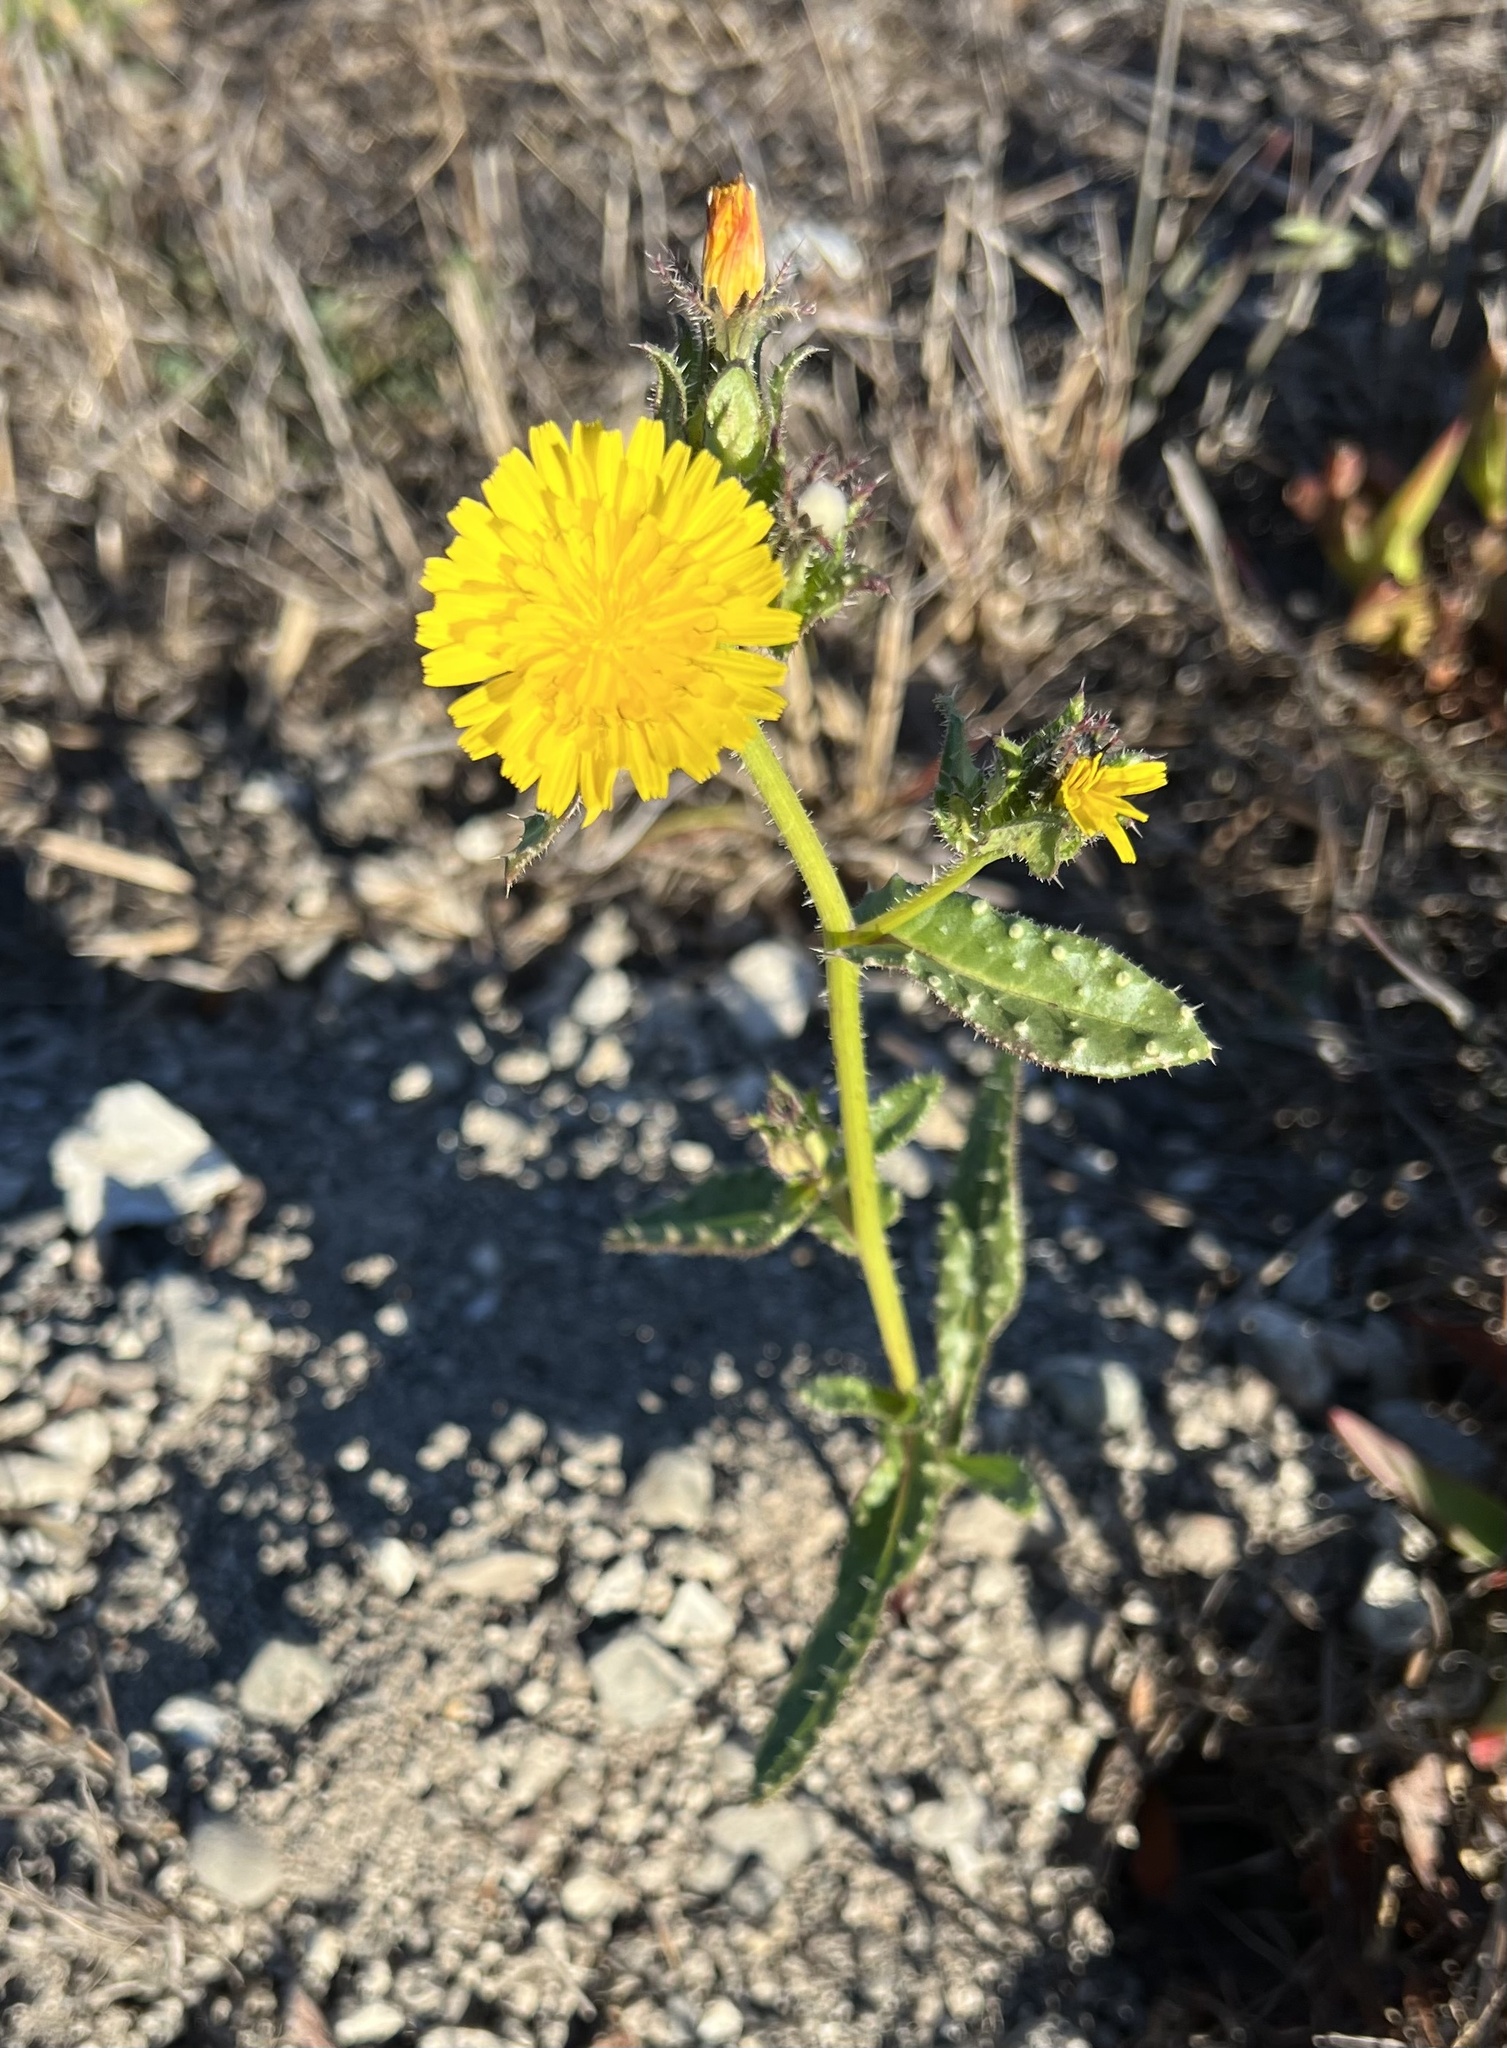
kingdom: Plantae
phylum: Tracheophyta
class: Magnoliopsida
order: Asterales
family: Asteraceae
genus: Helminthotheca
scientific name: Helminthotheca echioides
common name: Ox-tongue
